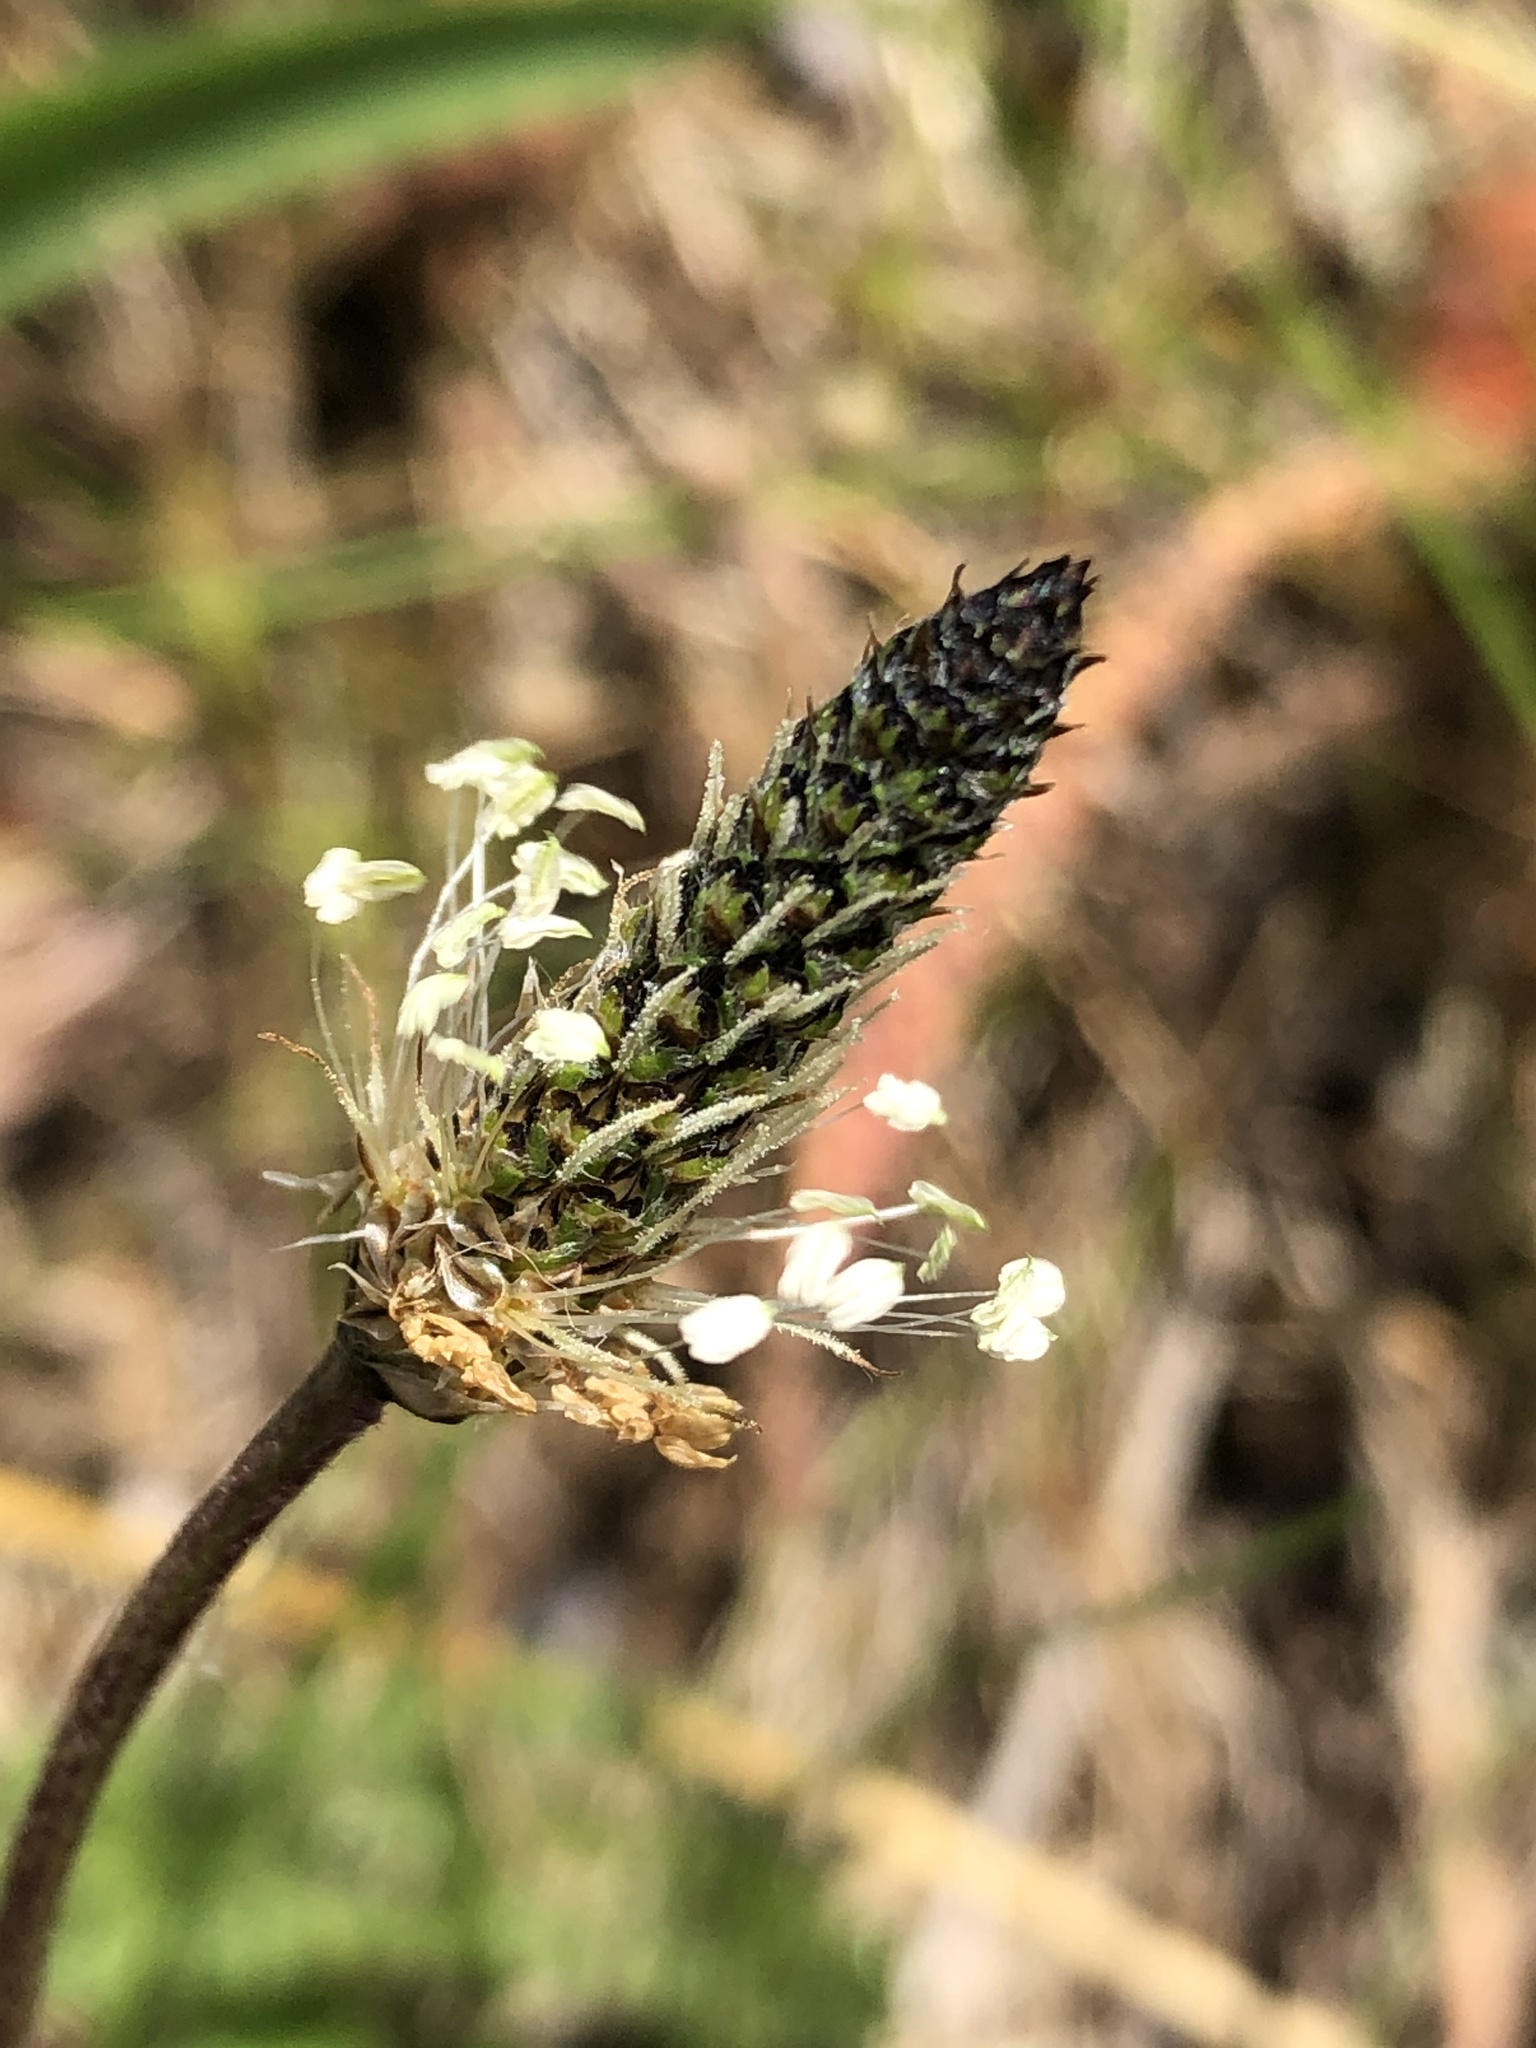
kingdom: Plantae
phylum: Tracheophyta
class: Magnoliopsida
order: Lamiales
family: Plantaginaceae
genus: Plantago
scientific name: Plantago lanceolata
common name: Ribwort plantain
